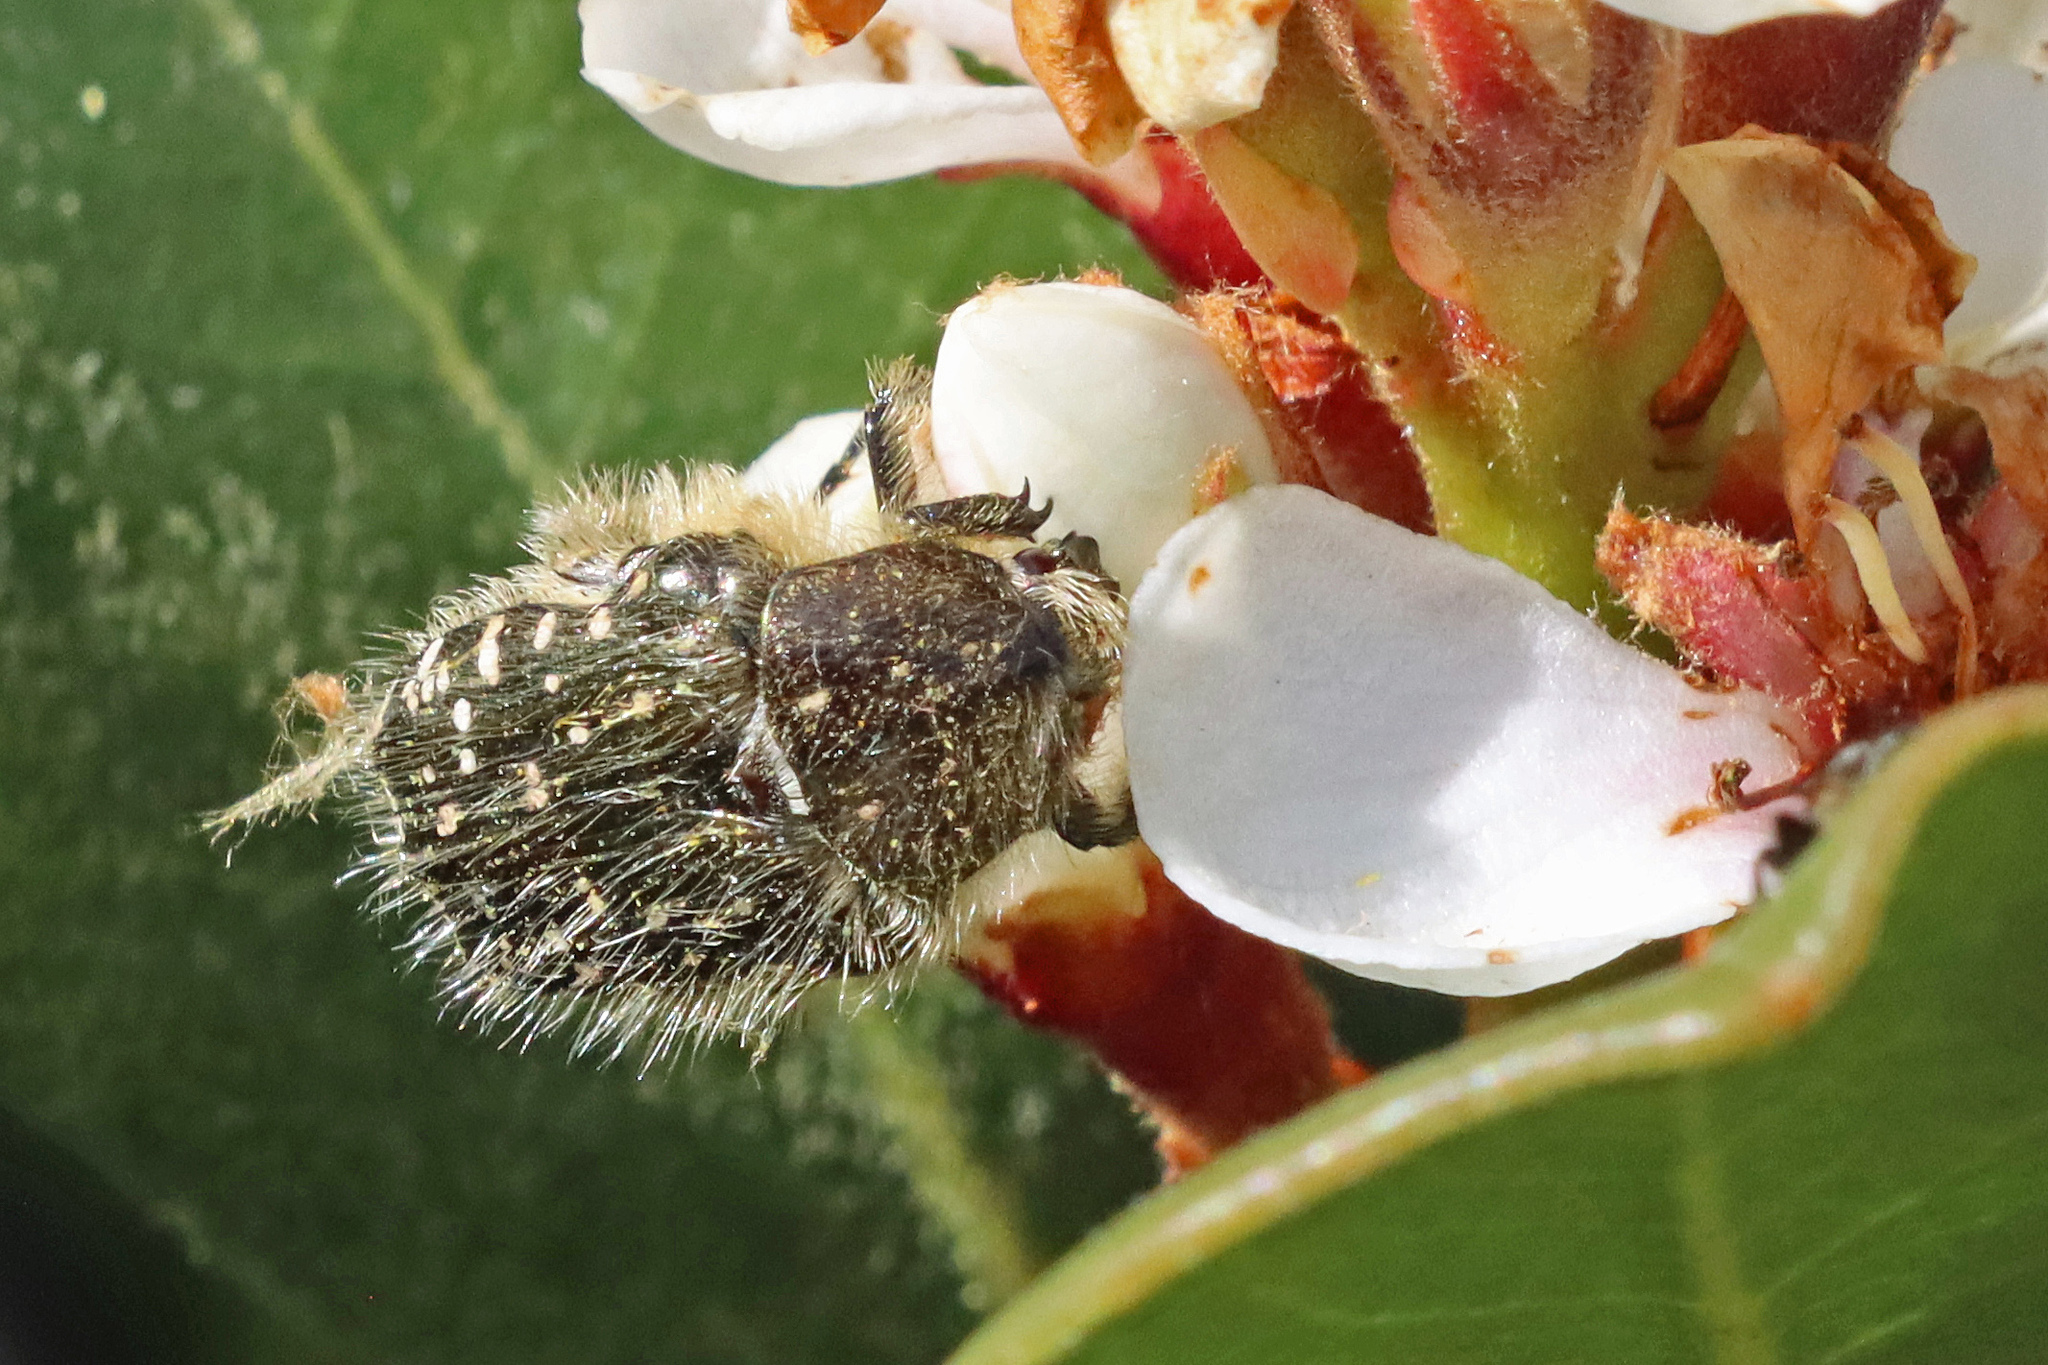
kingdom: Animalia
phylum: Arthropoda
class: Insecta
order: Coleoptera
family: Scarabaeidae
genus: Oxythyrea
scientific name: Oxythyrea funesta
